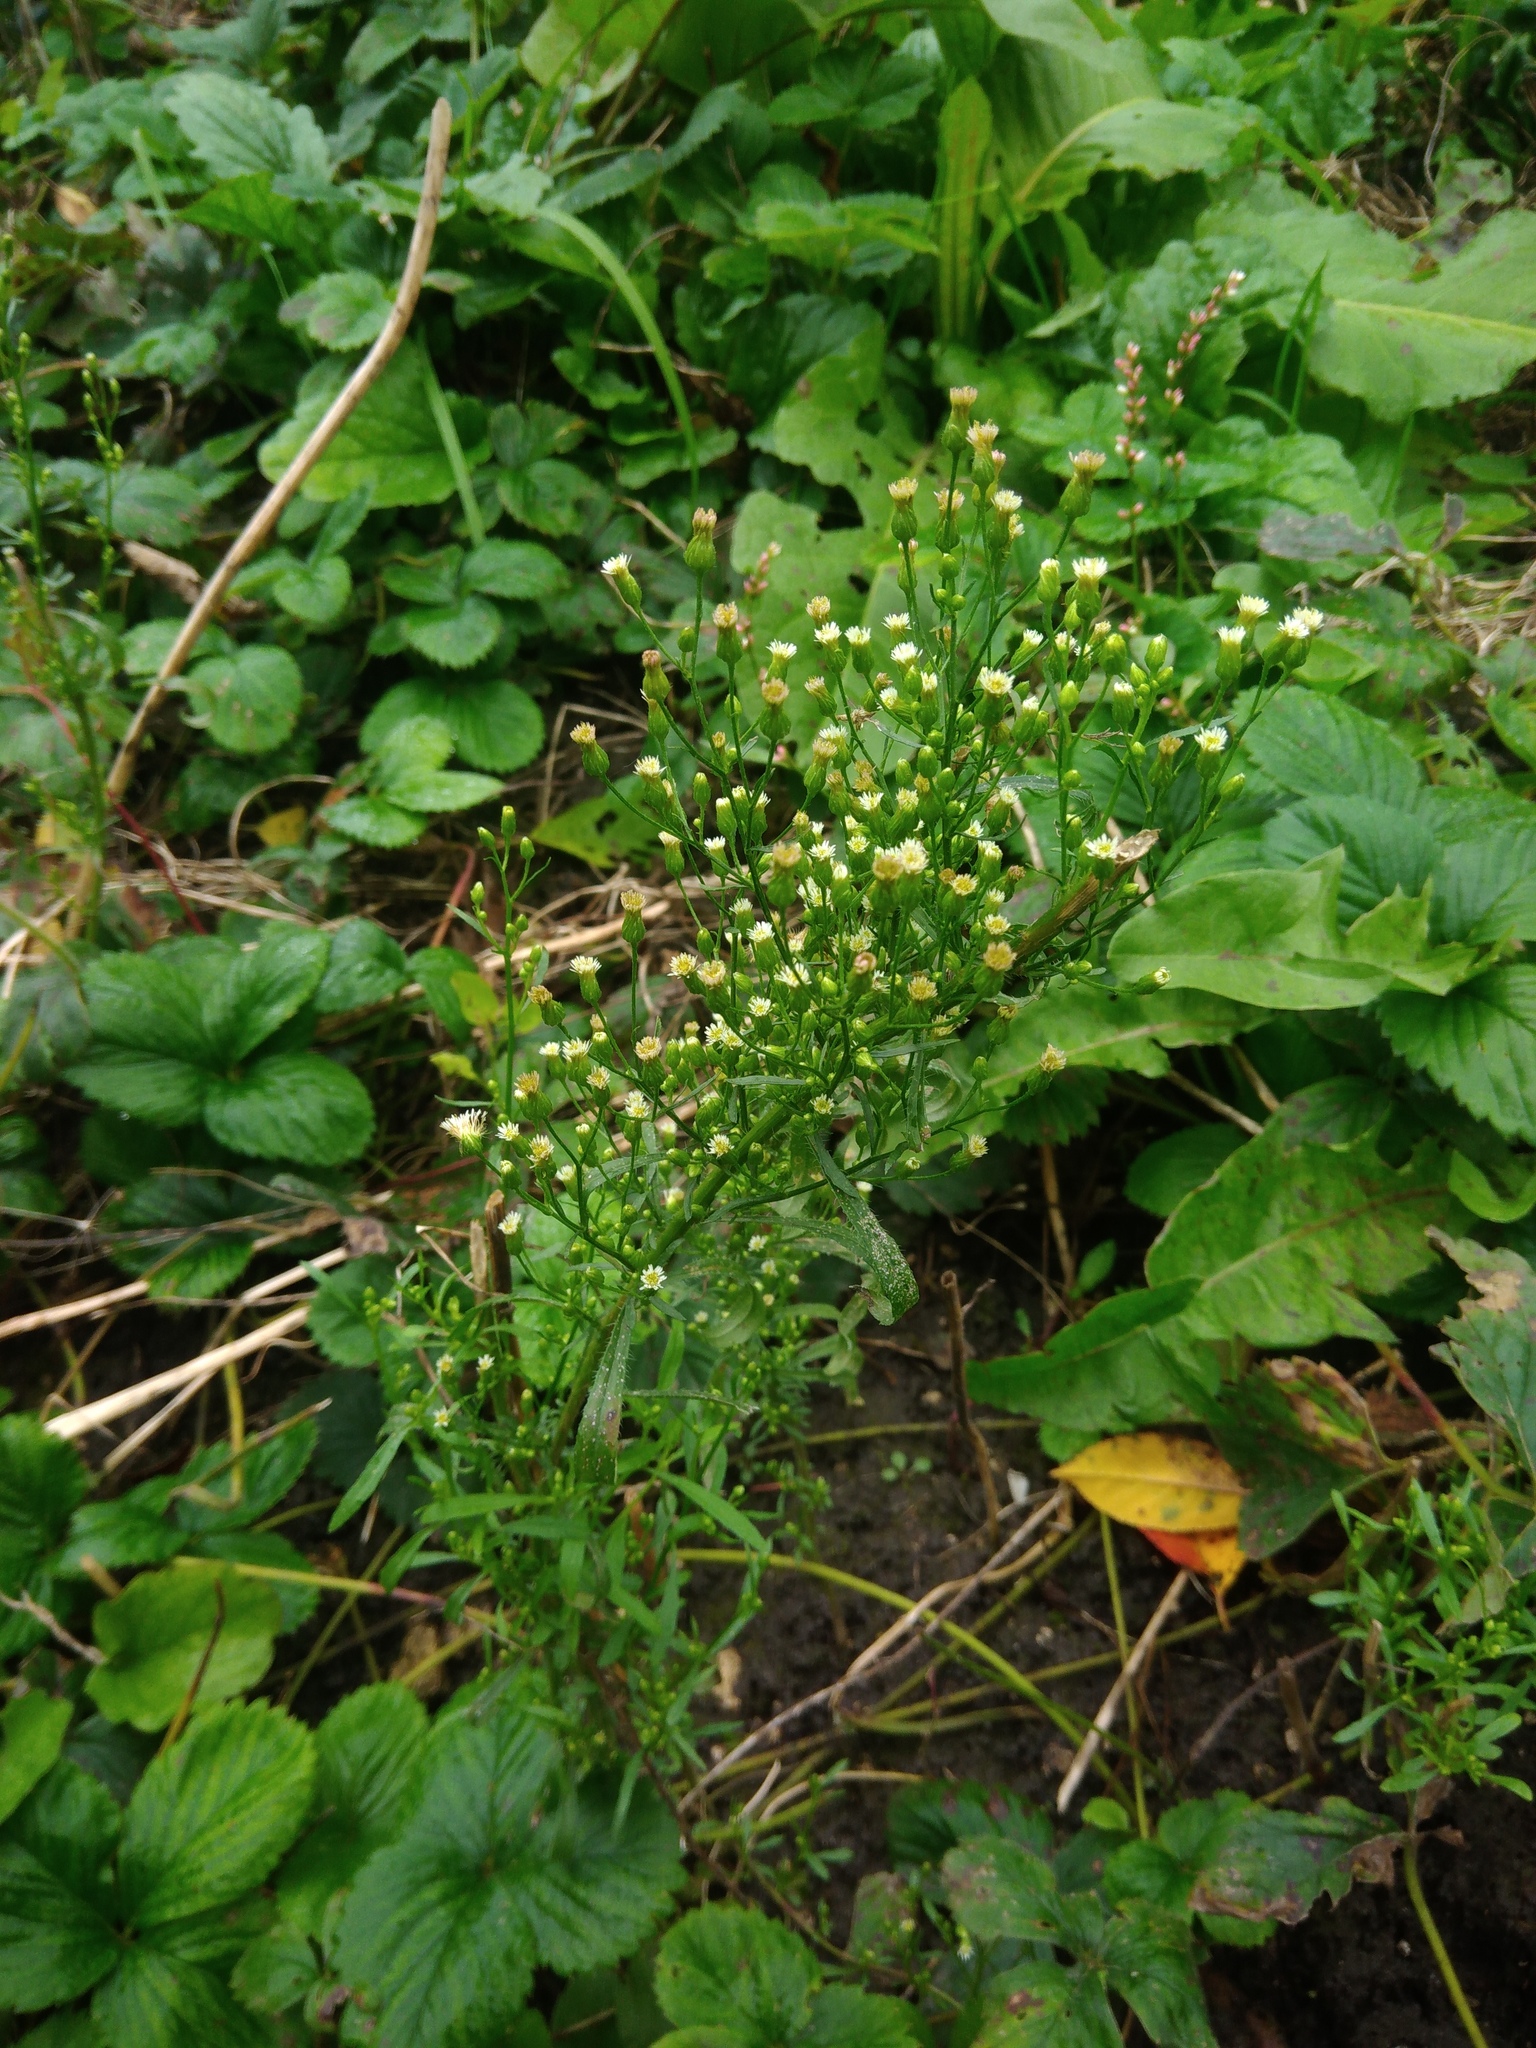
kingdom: Plantae
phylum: Tracheophyta
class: Magnoliopsida
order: Asterales
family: Asteraceae
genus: Erigeron
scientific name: Erigeron canadensis
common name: Canadian fleabane
